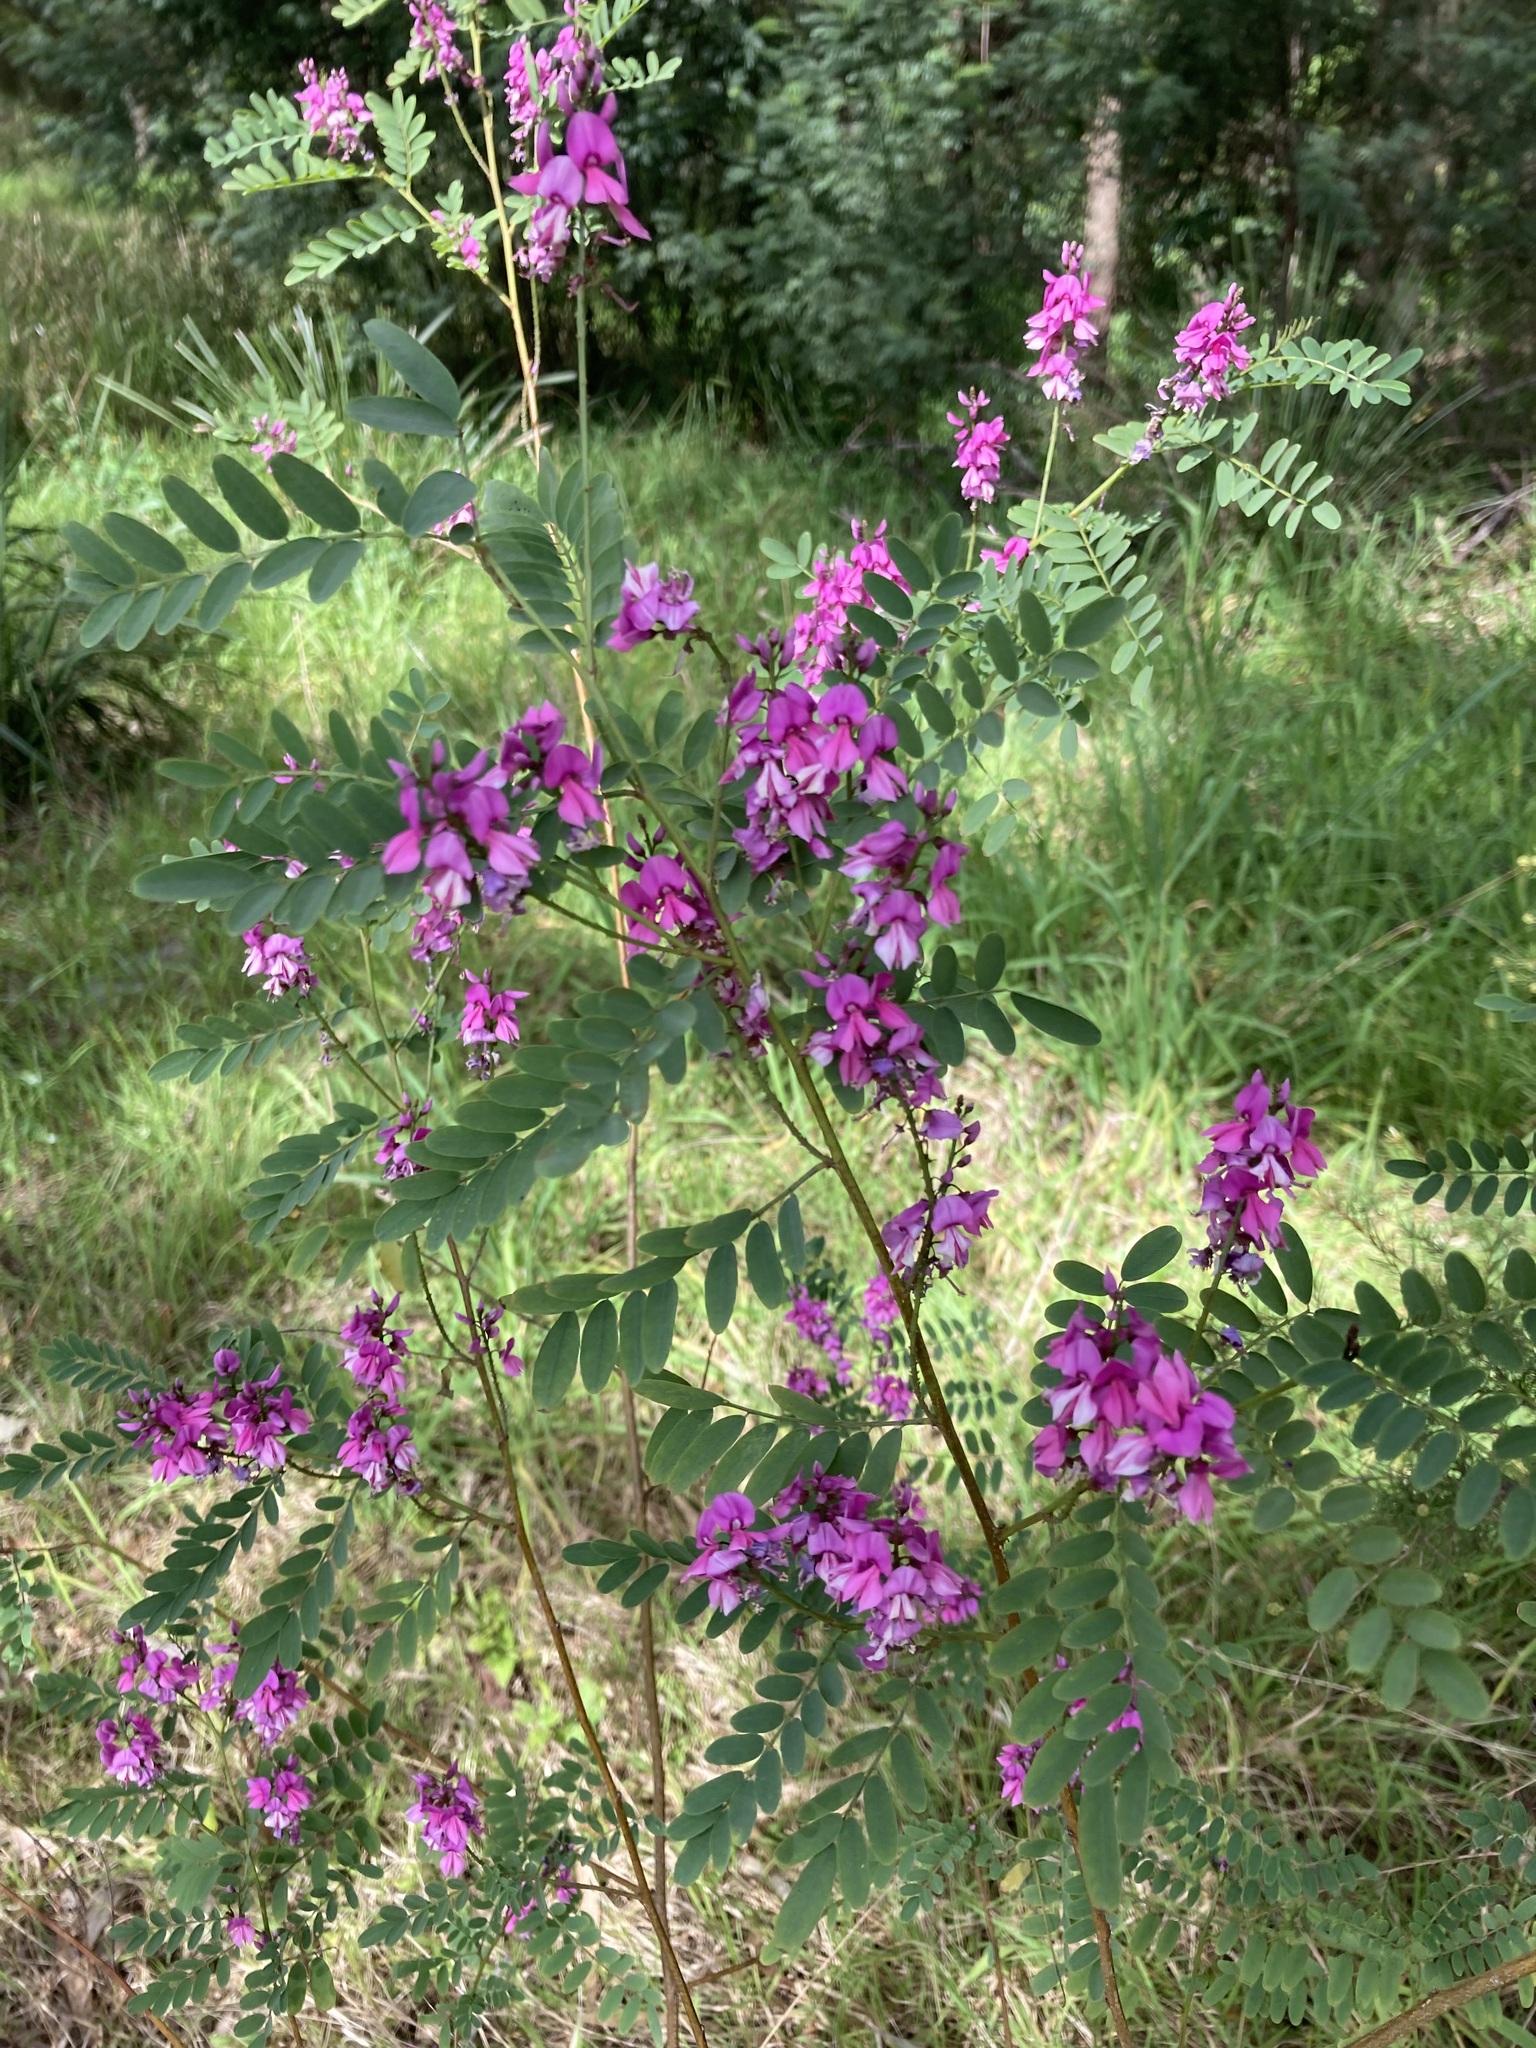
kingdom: Plantae
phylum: Tracheophyta
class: Magnoliopsida
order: Fabales
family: Fabaceae
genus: Indigofera
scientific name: Indigofera australis
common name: Australian indigo
